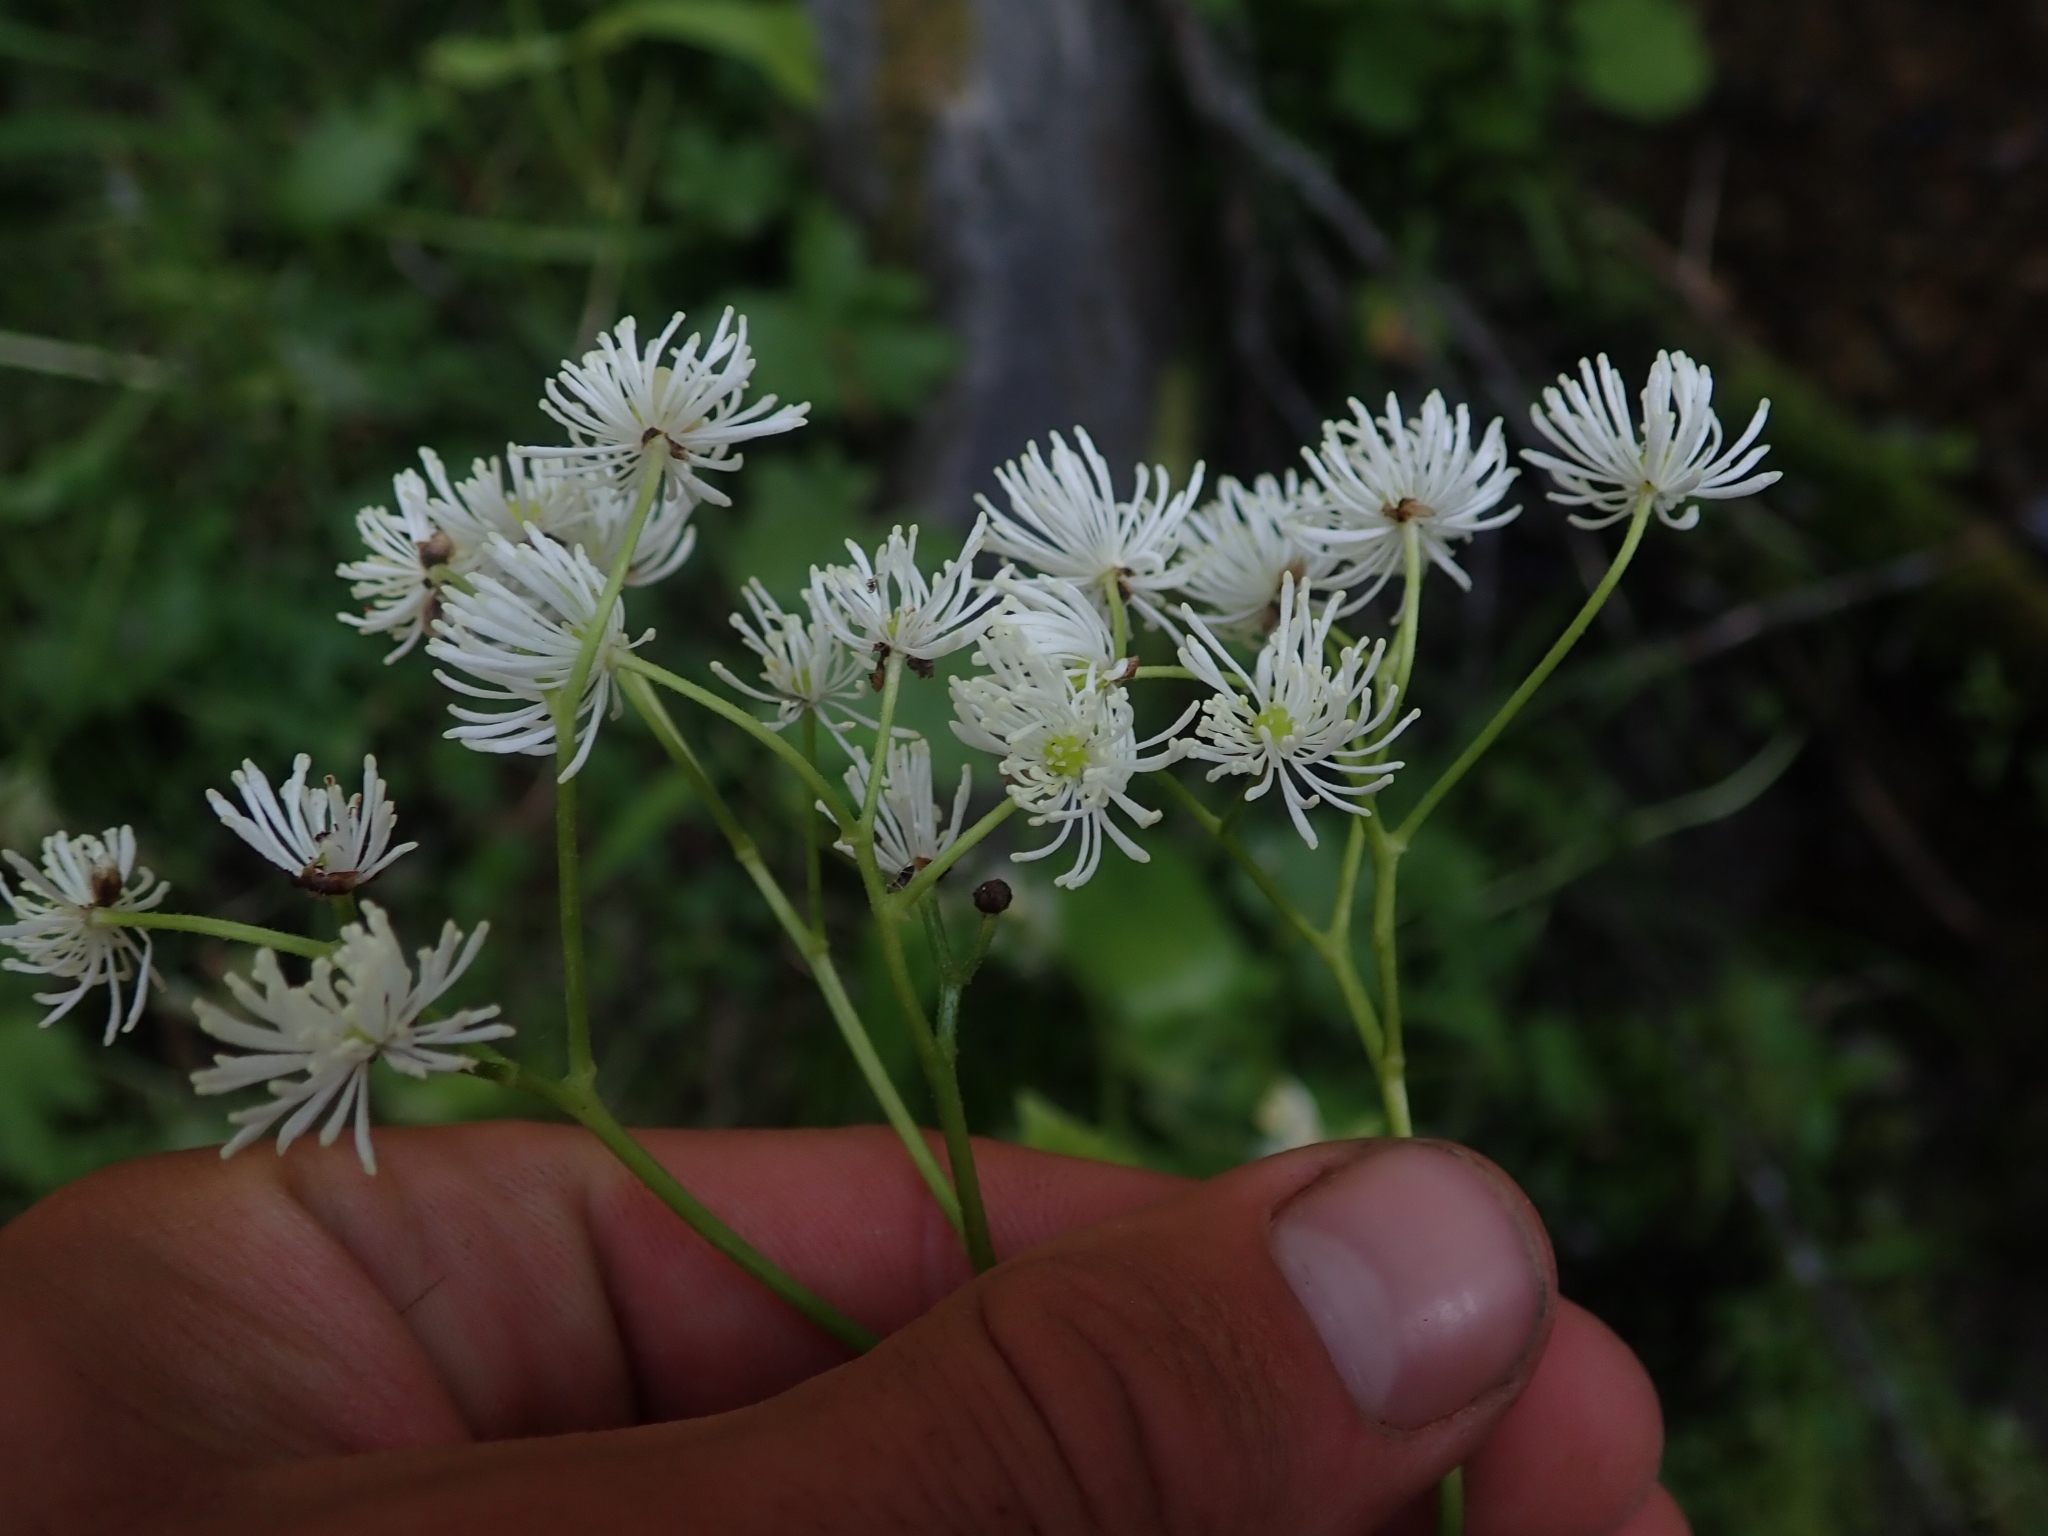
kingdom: Plantae
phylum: Tracheophyta
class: Magnoliopsida
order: Ranunculales
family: Ranunculaceae
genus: Trautvetteria
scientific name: Trautvetteria carolinensis
